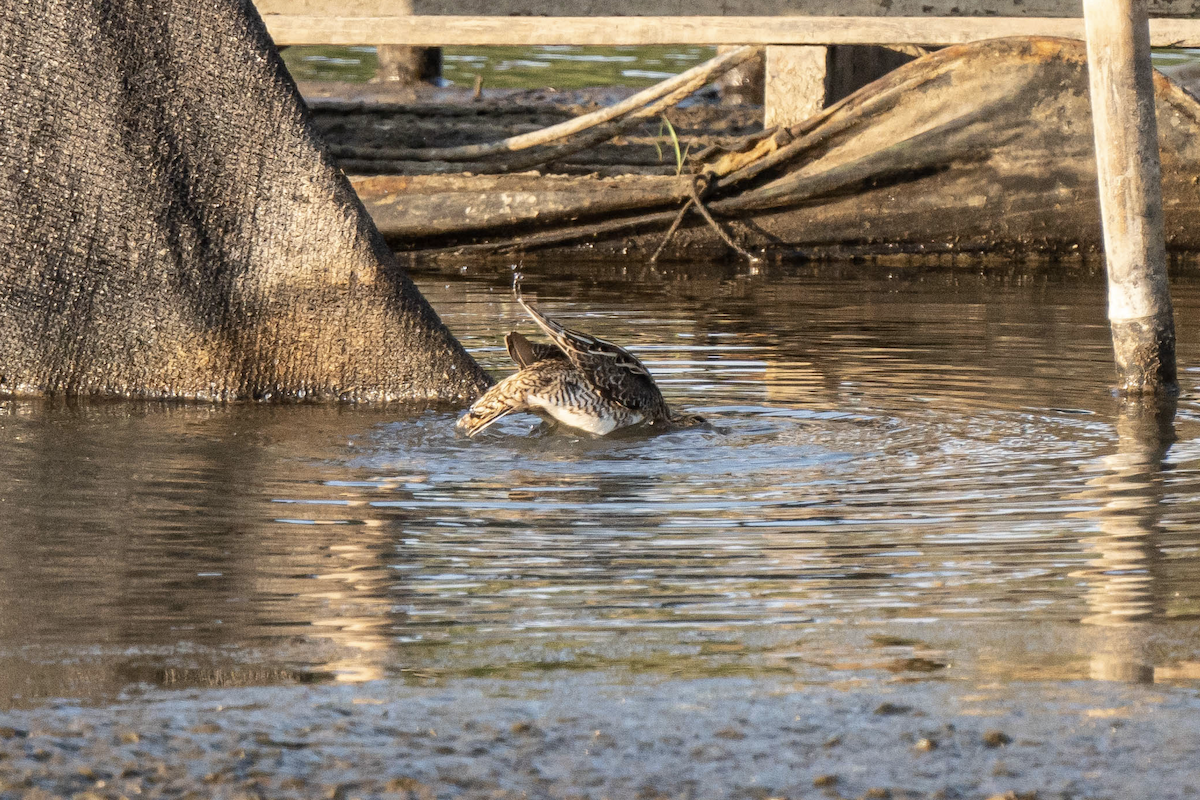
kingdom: Animalia
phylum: Chordata
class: Aves
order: Charadriiformes
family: Scolopacidae
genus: Gallinago
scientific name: Gallinago gallinago
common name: Common snipe
